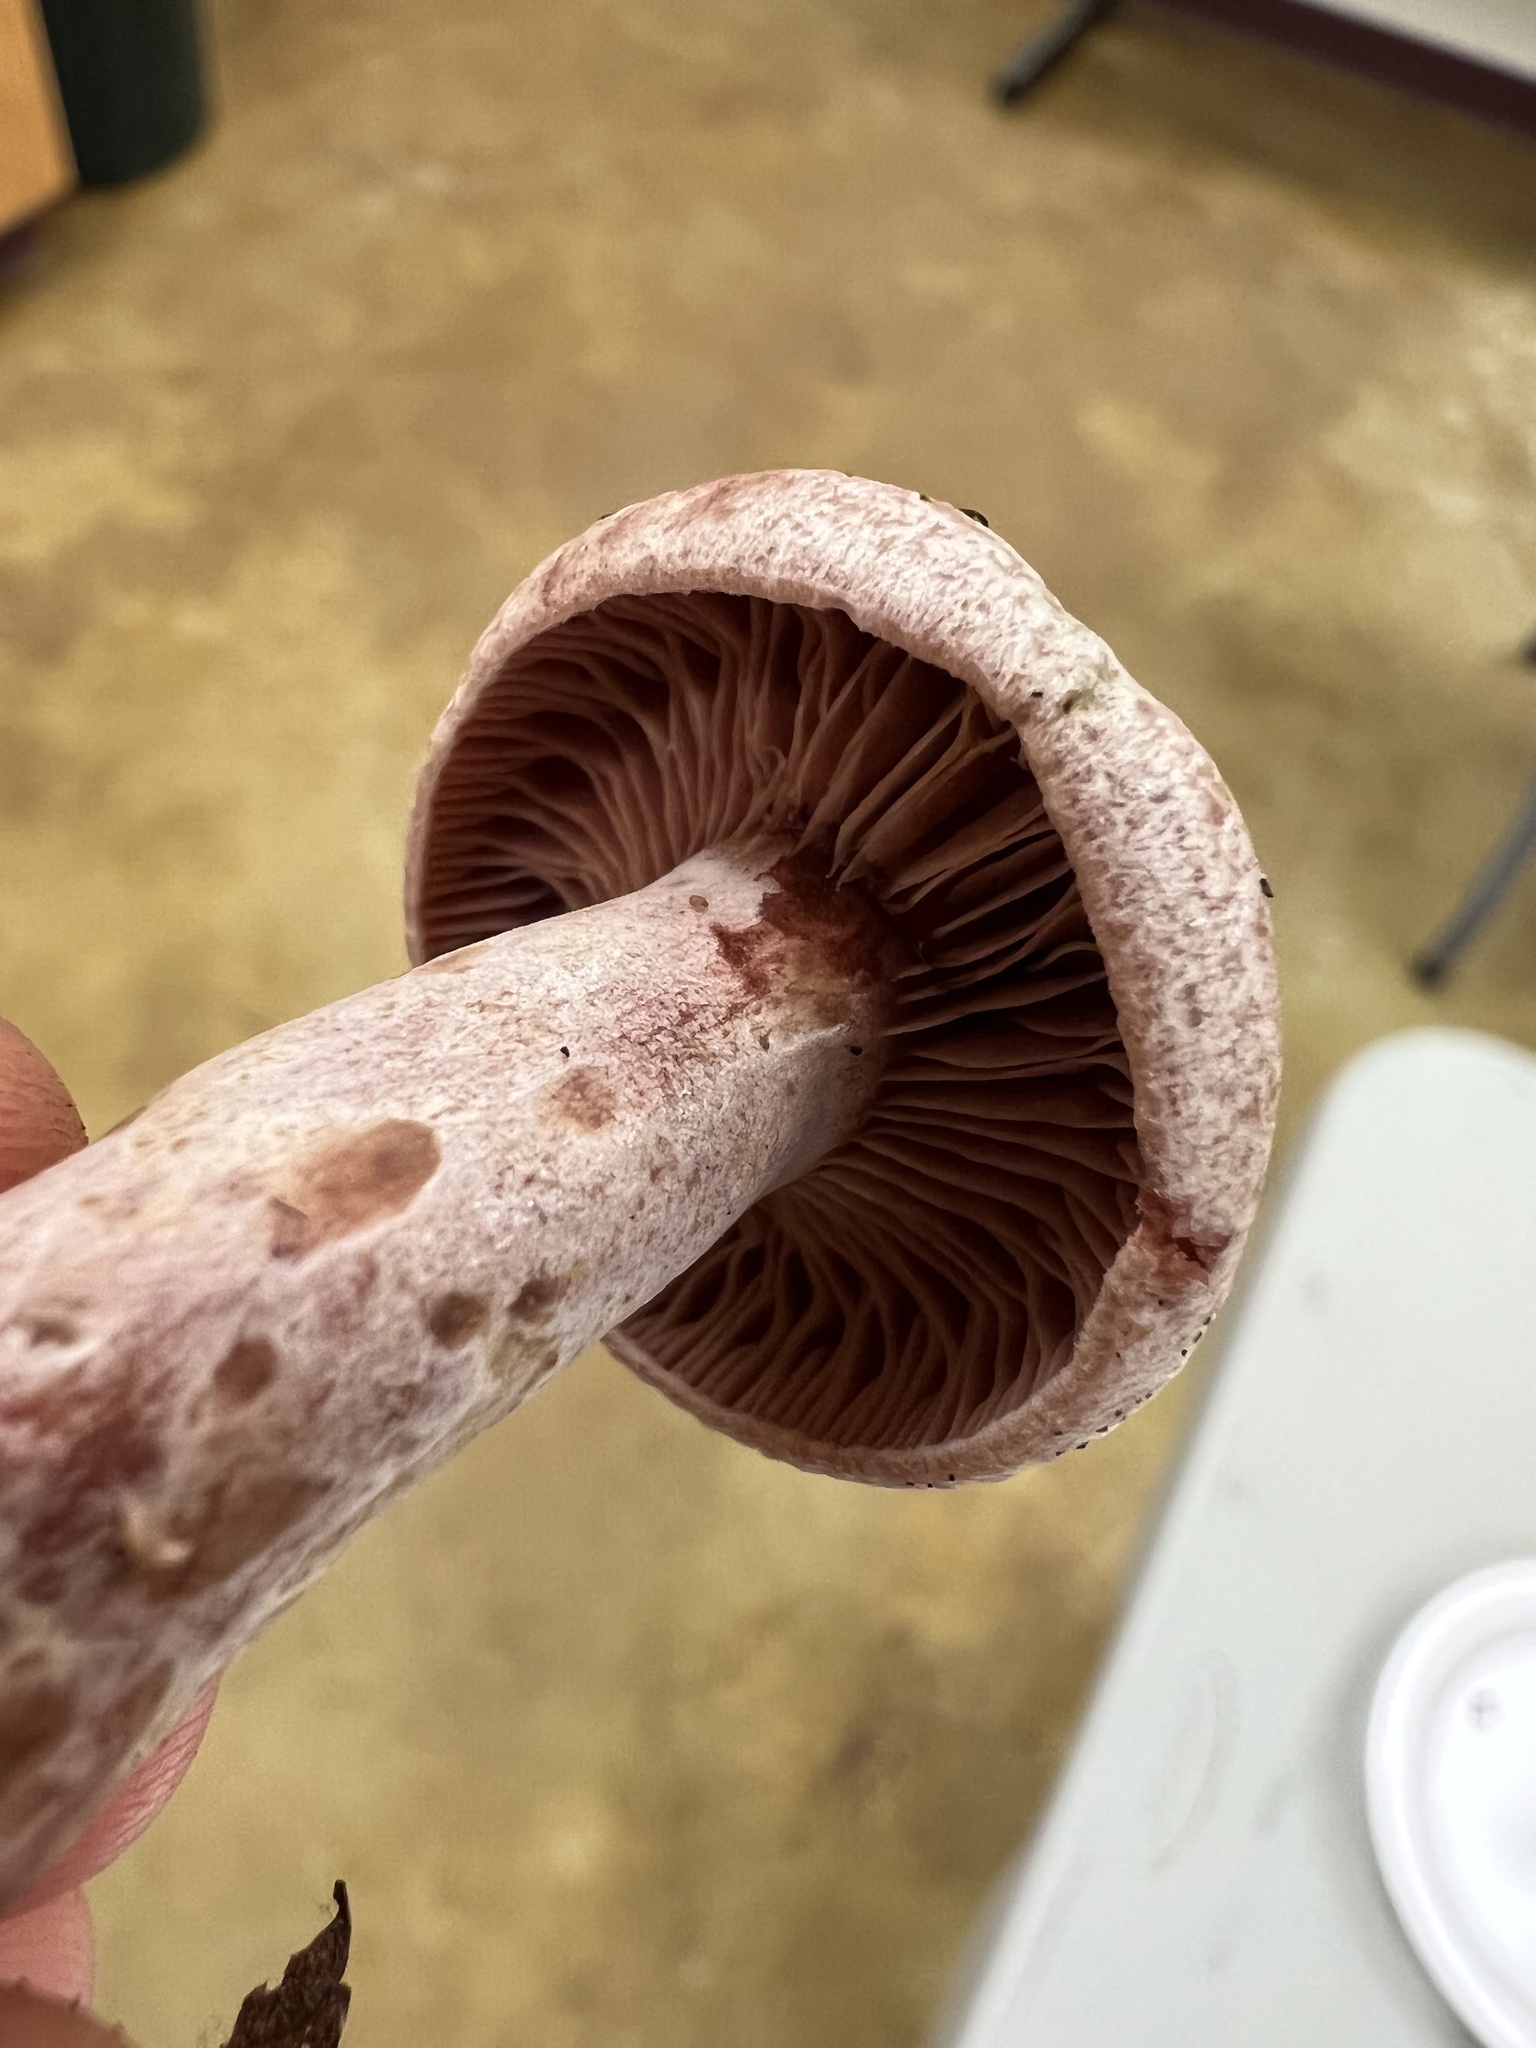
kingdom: Fungi
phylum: Basidiomycota
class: Agaricomycetes
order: Russulales
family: Russulaceae
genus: Lactarius
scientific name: Lactarius subpurpureus
